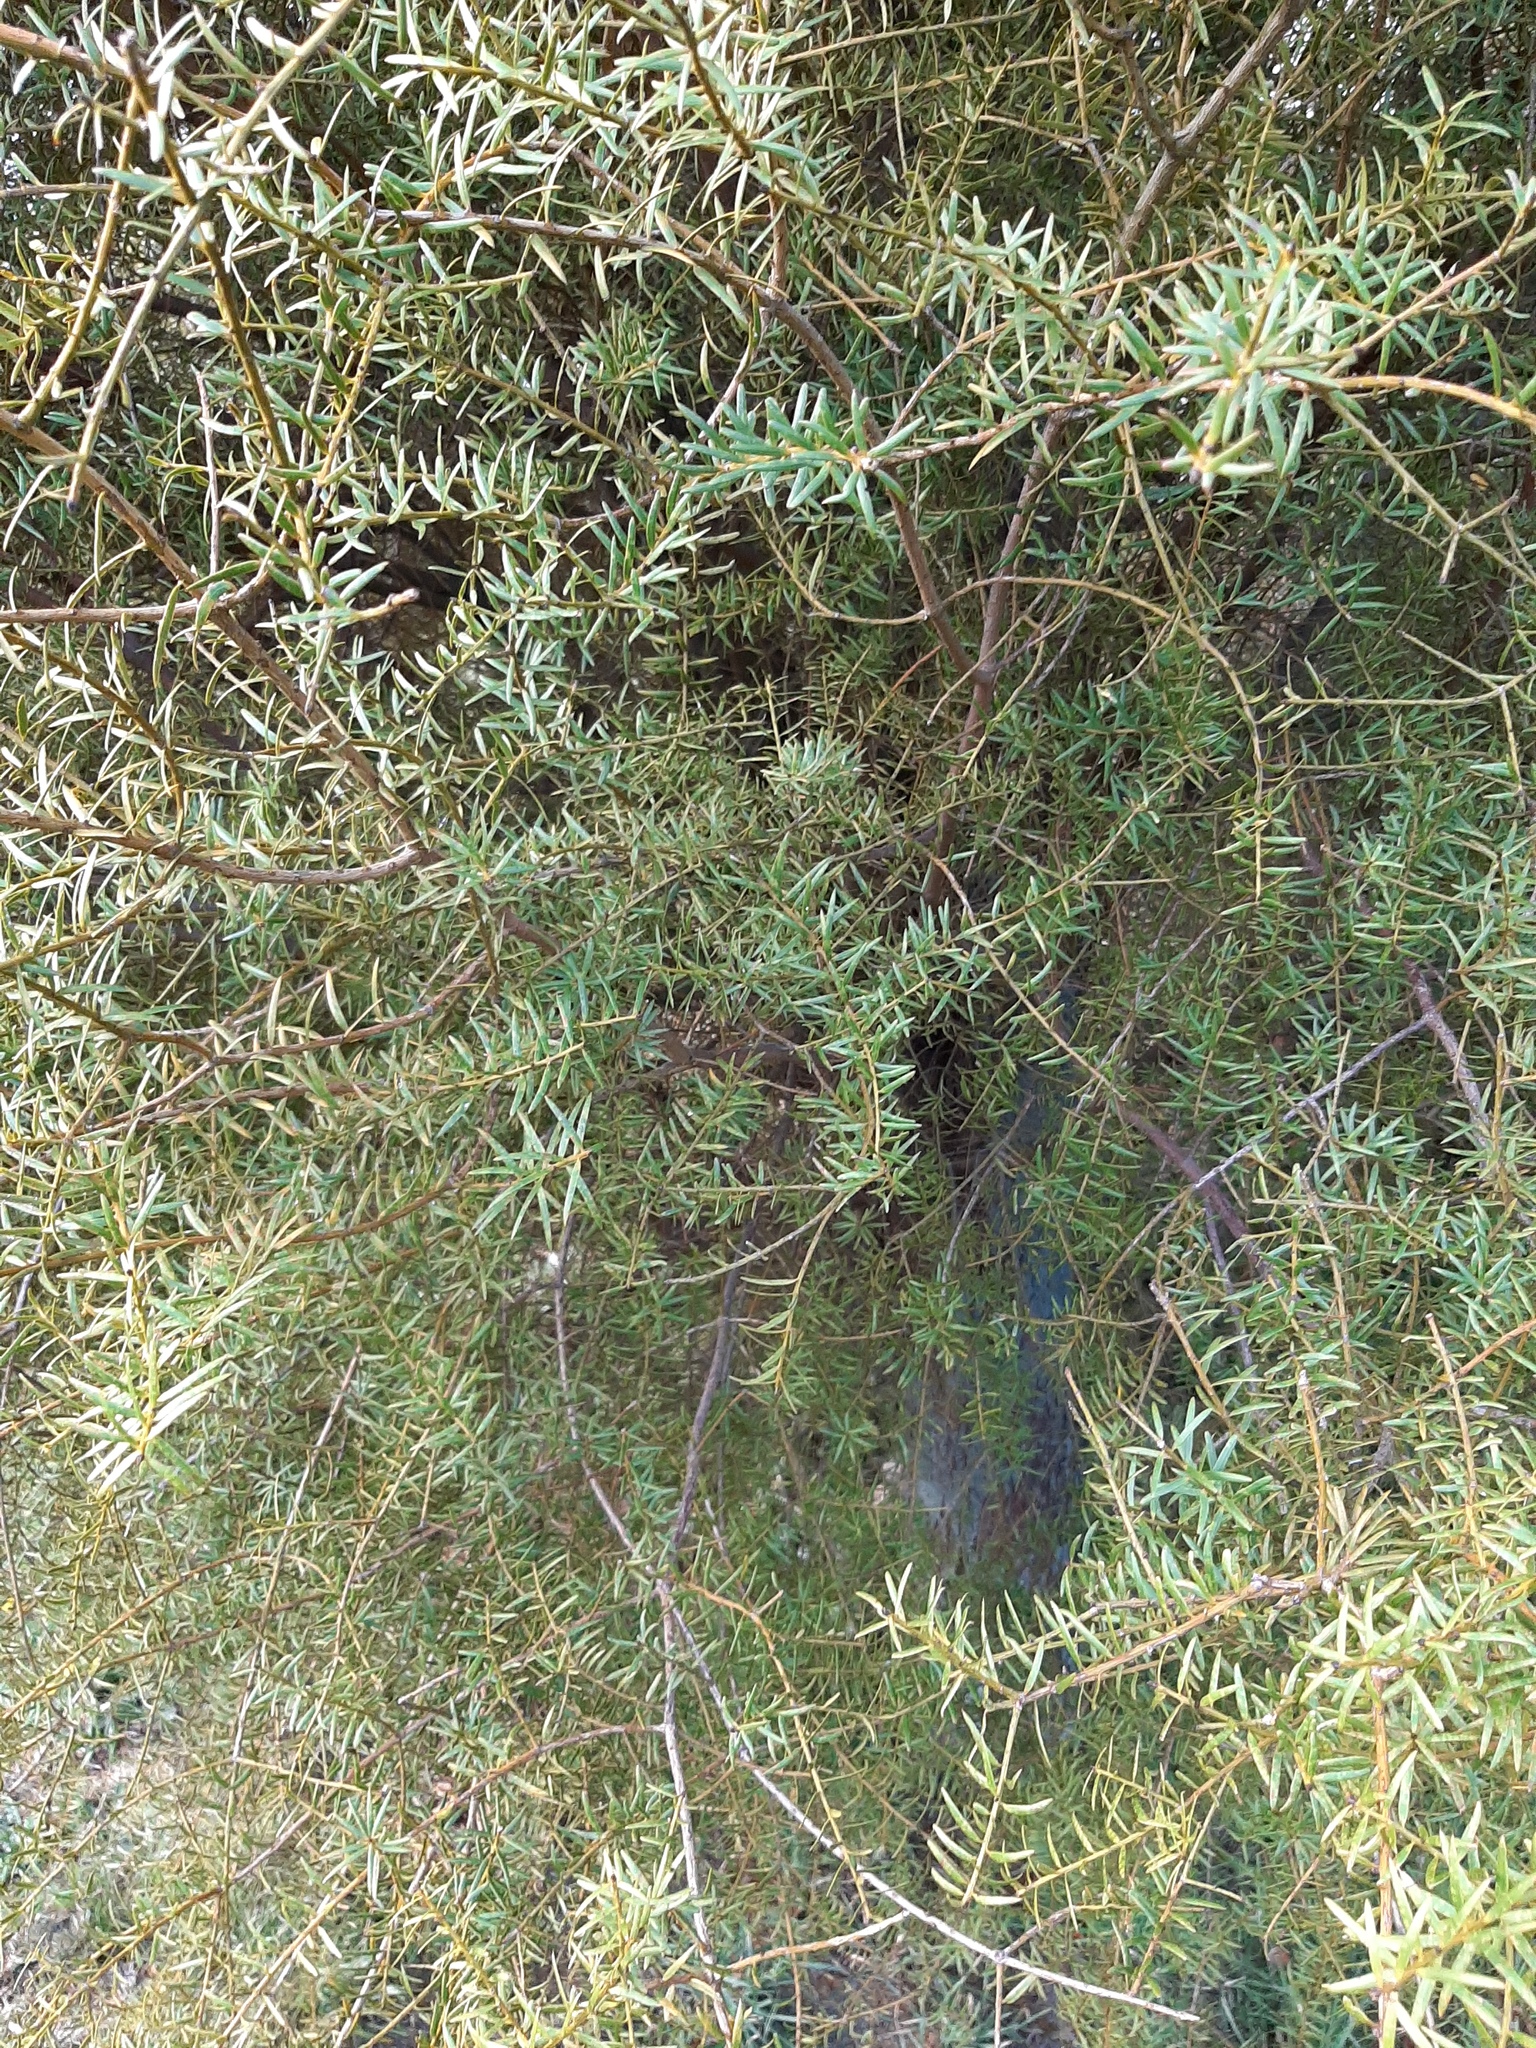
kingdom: Plantae
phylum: Tracheophyta
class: Pinopsida
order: Pinales
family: Podocarpaceae
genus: Podocarpus
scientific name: Podocarpus totara
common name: Totara
